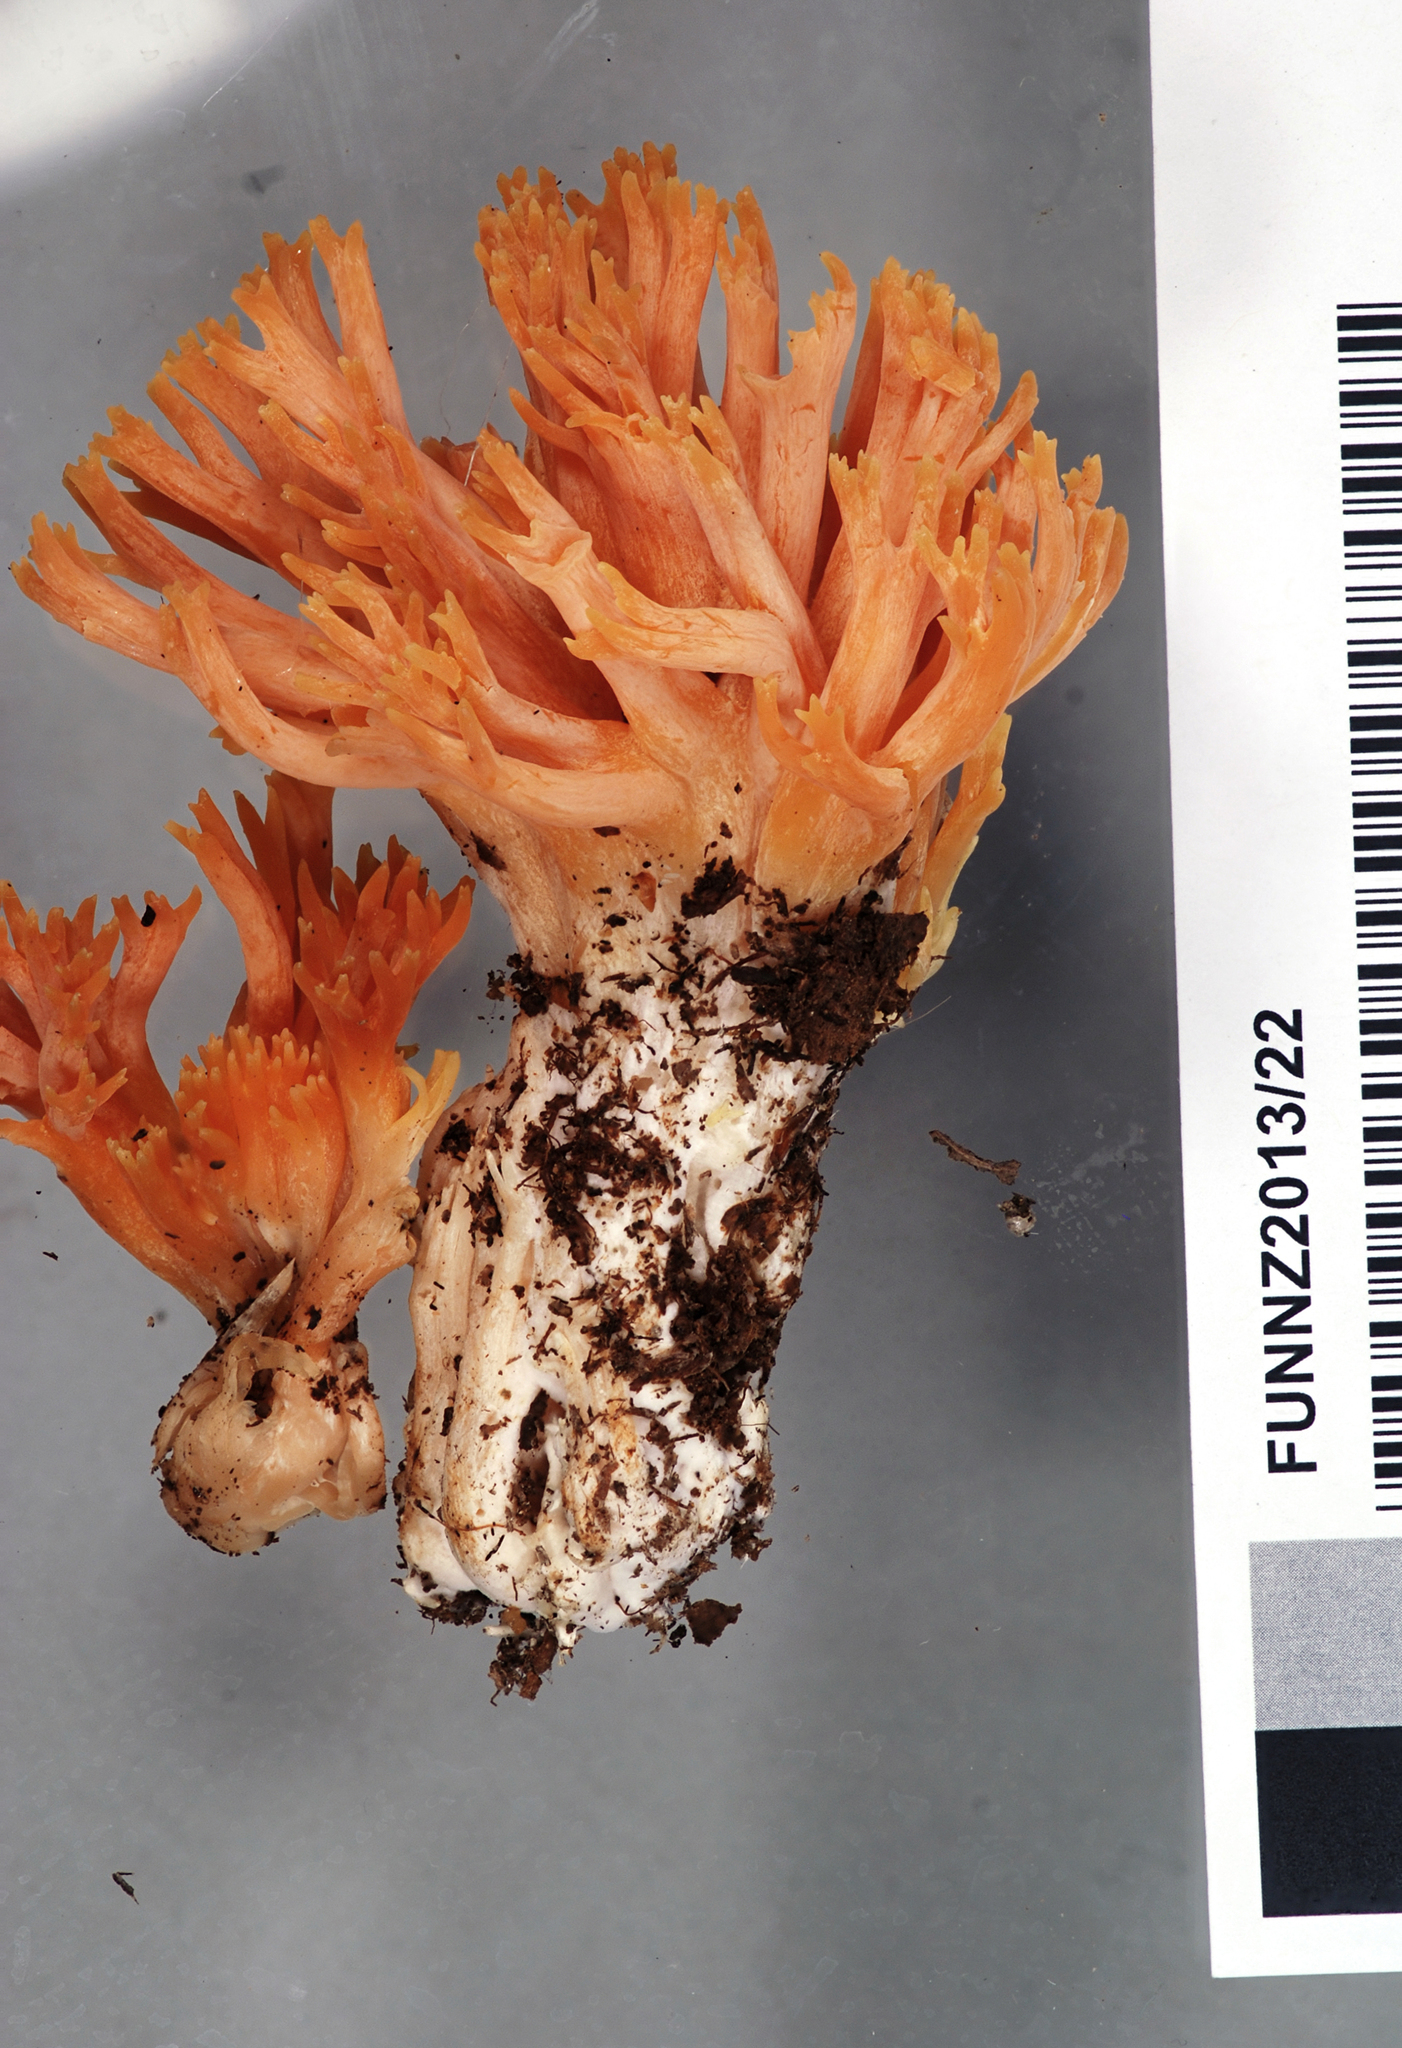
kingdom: Fungi
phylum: Basidiomycota
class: Agaricomycetes
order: Gomphales
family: Gomphaceae
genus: Ramaria
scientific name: Ramaria piedmontiana
